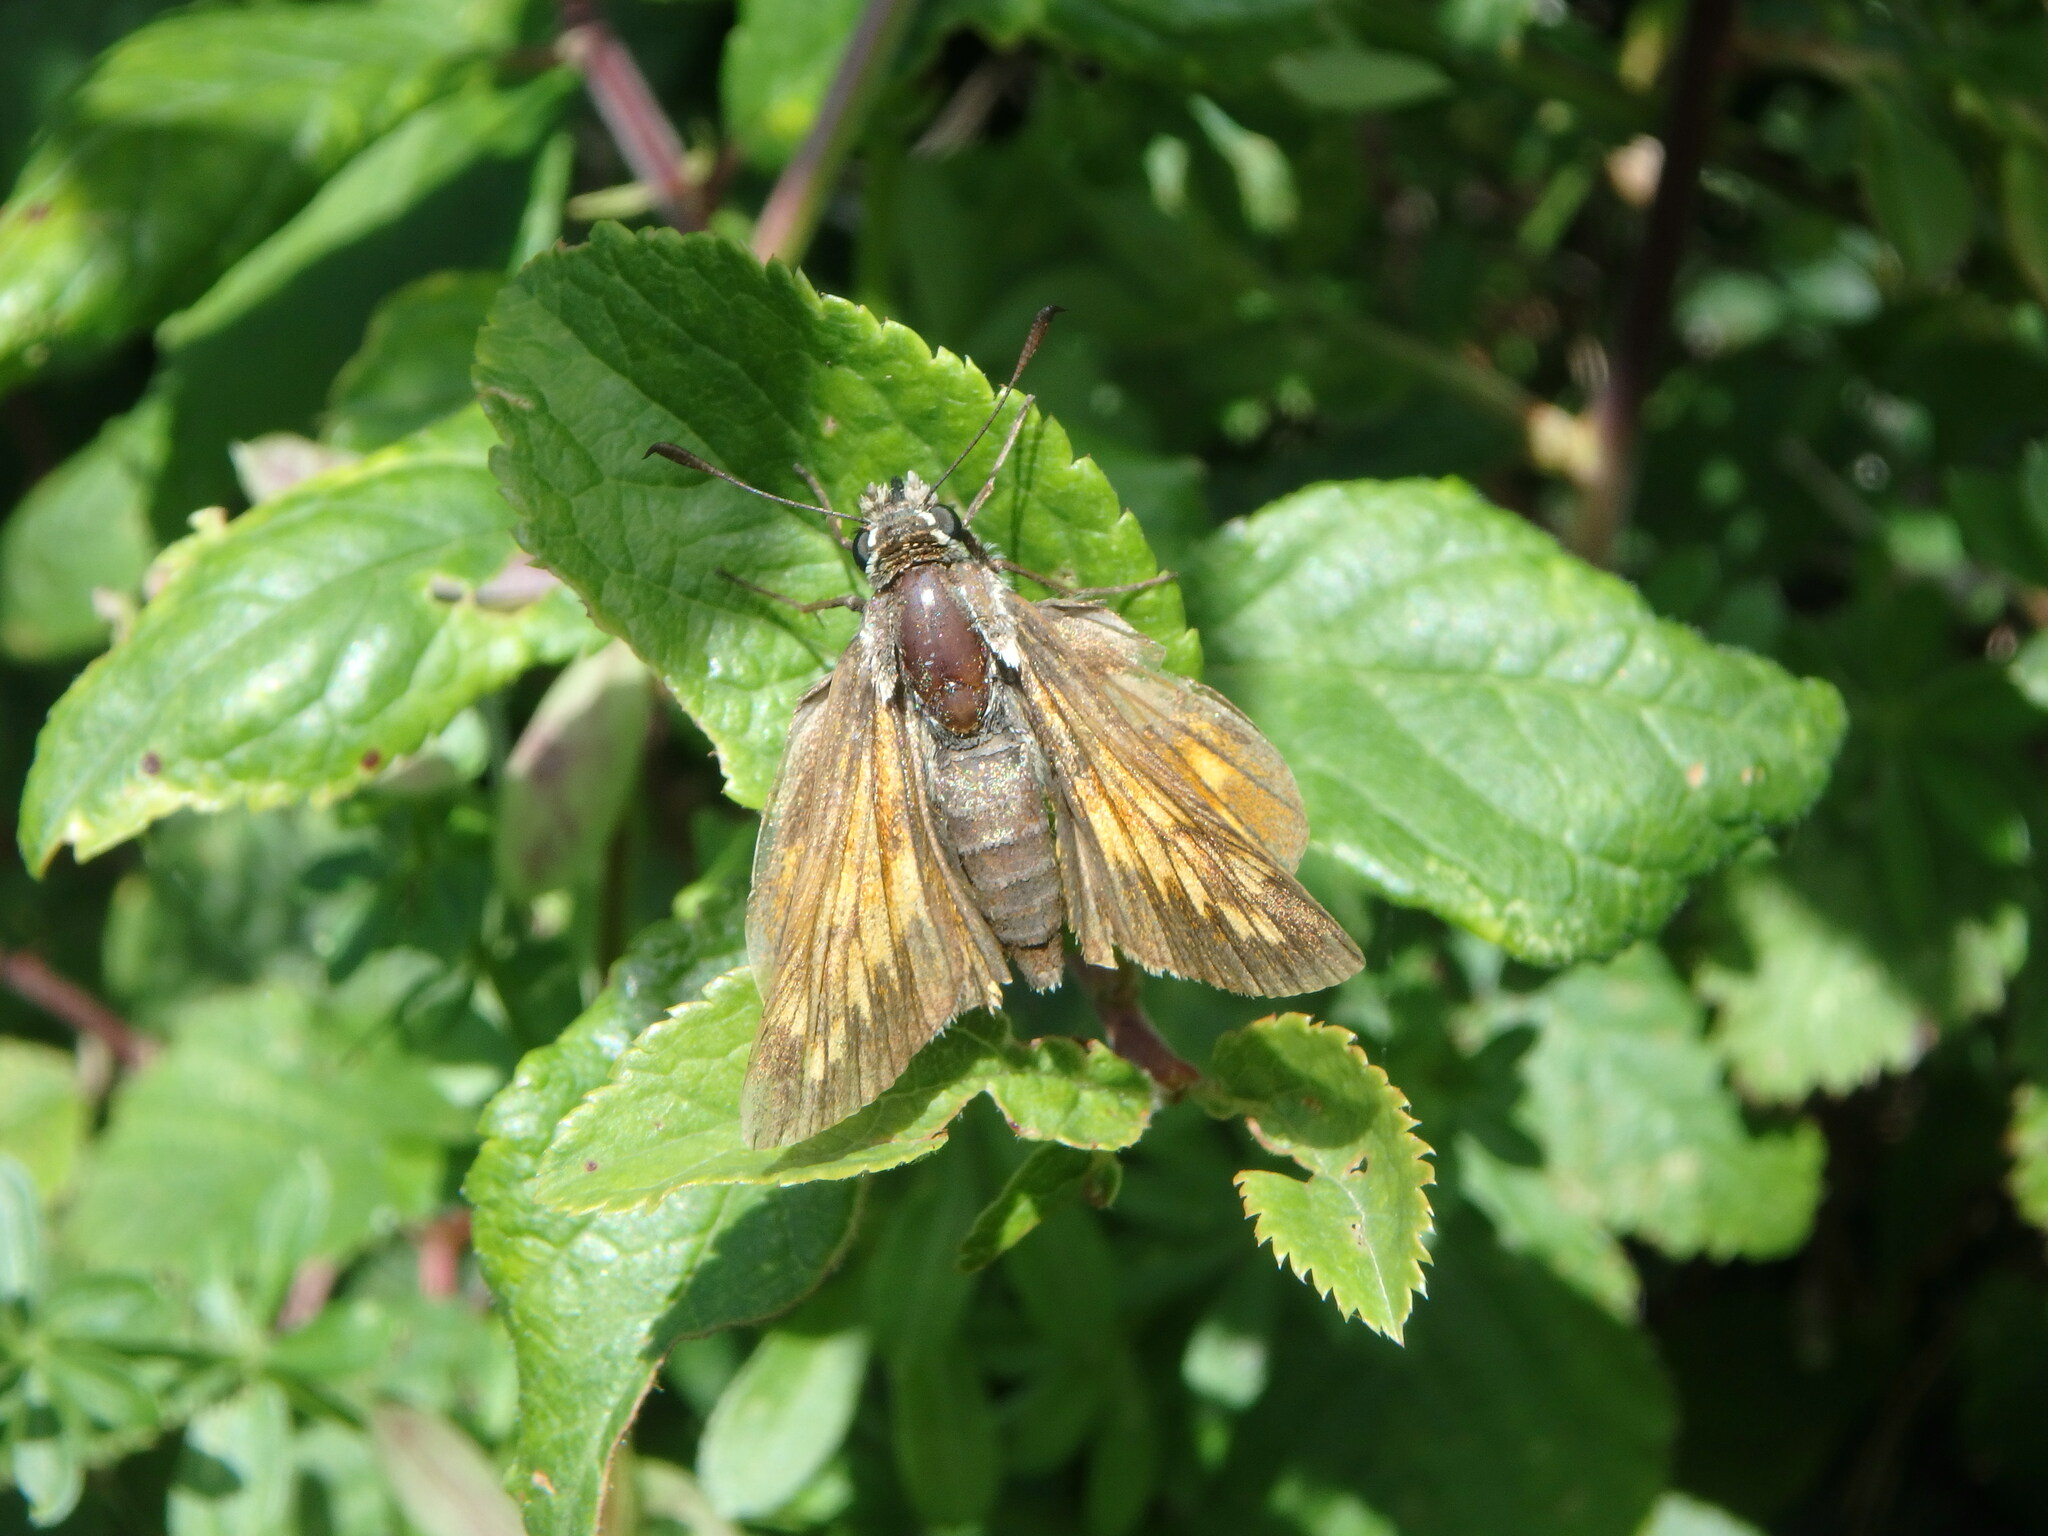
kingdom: Animalia
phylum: Arthropoda
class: Insecta
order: Lepidoptera
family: Hesperiidae
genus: Ochlodes
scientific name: Ochlodes venata
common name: Large skipper
